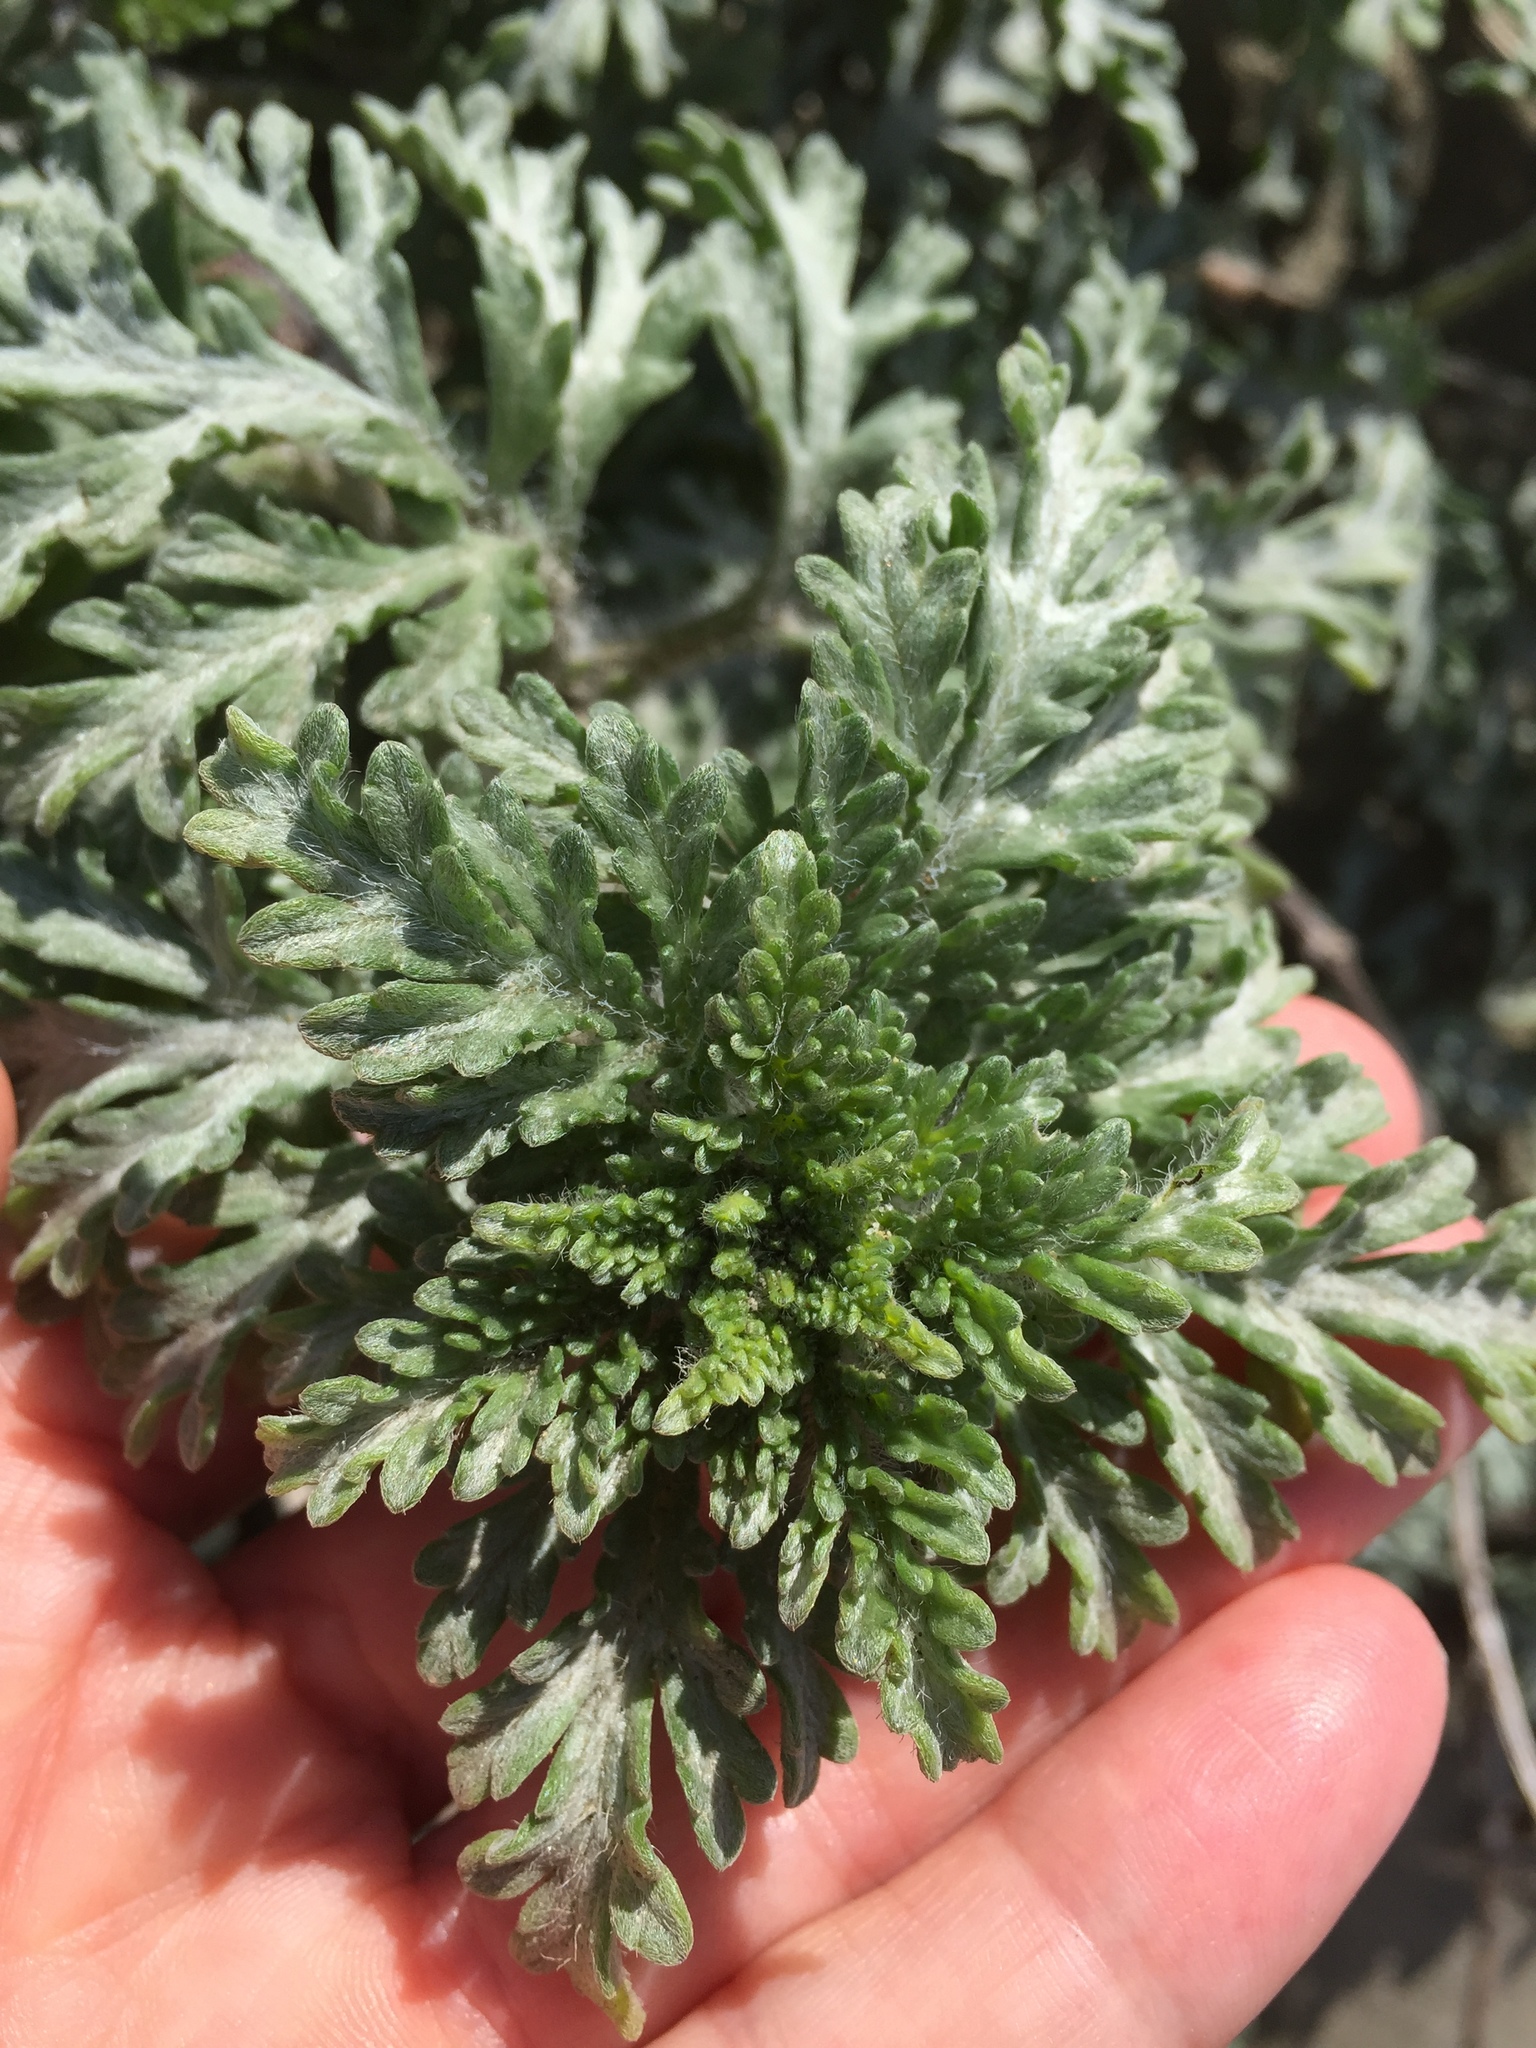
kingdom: Plantae
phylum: Tracheophyta
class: Magnoliopsida
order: Asterales
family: Asteraceae
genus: Ambrosia
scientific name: Ambrosia chamissonis
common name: Beachbur
